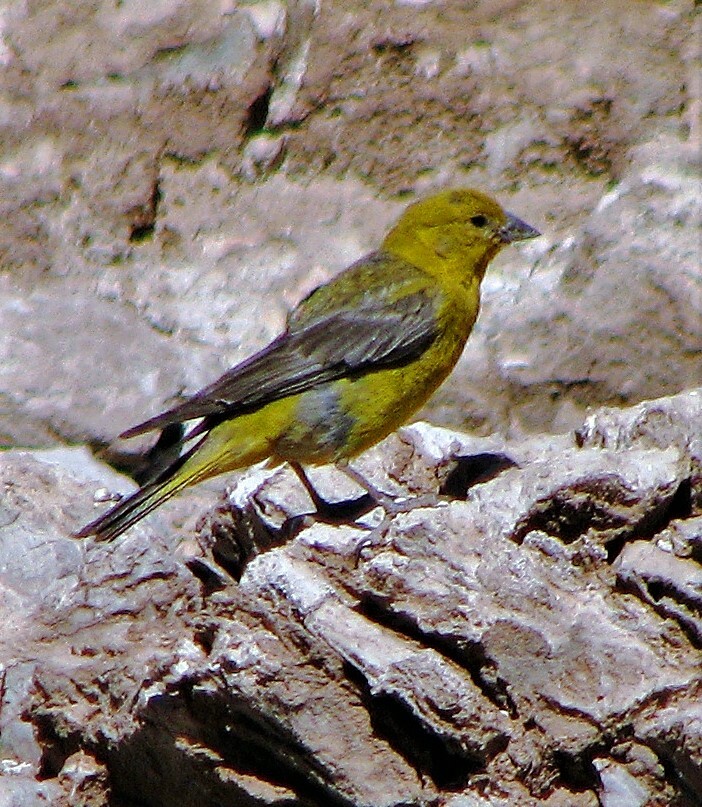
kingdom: Animalia
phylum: Chordata
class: Aves
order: Passeriformes
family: Thraupidae
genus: Sicalis
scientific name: Sicalis auriventris
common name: Greater yellow finch
